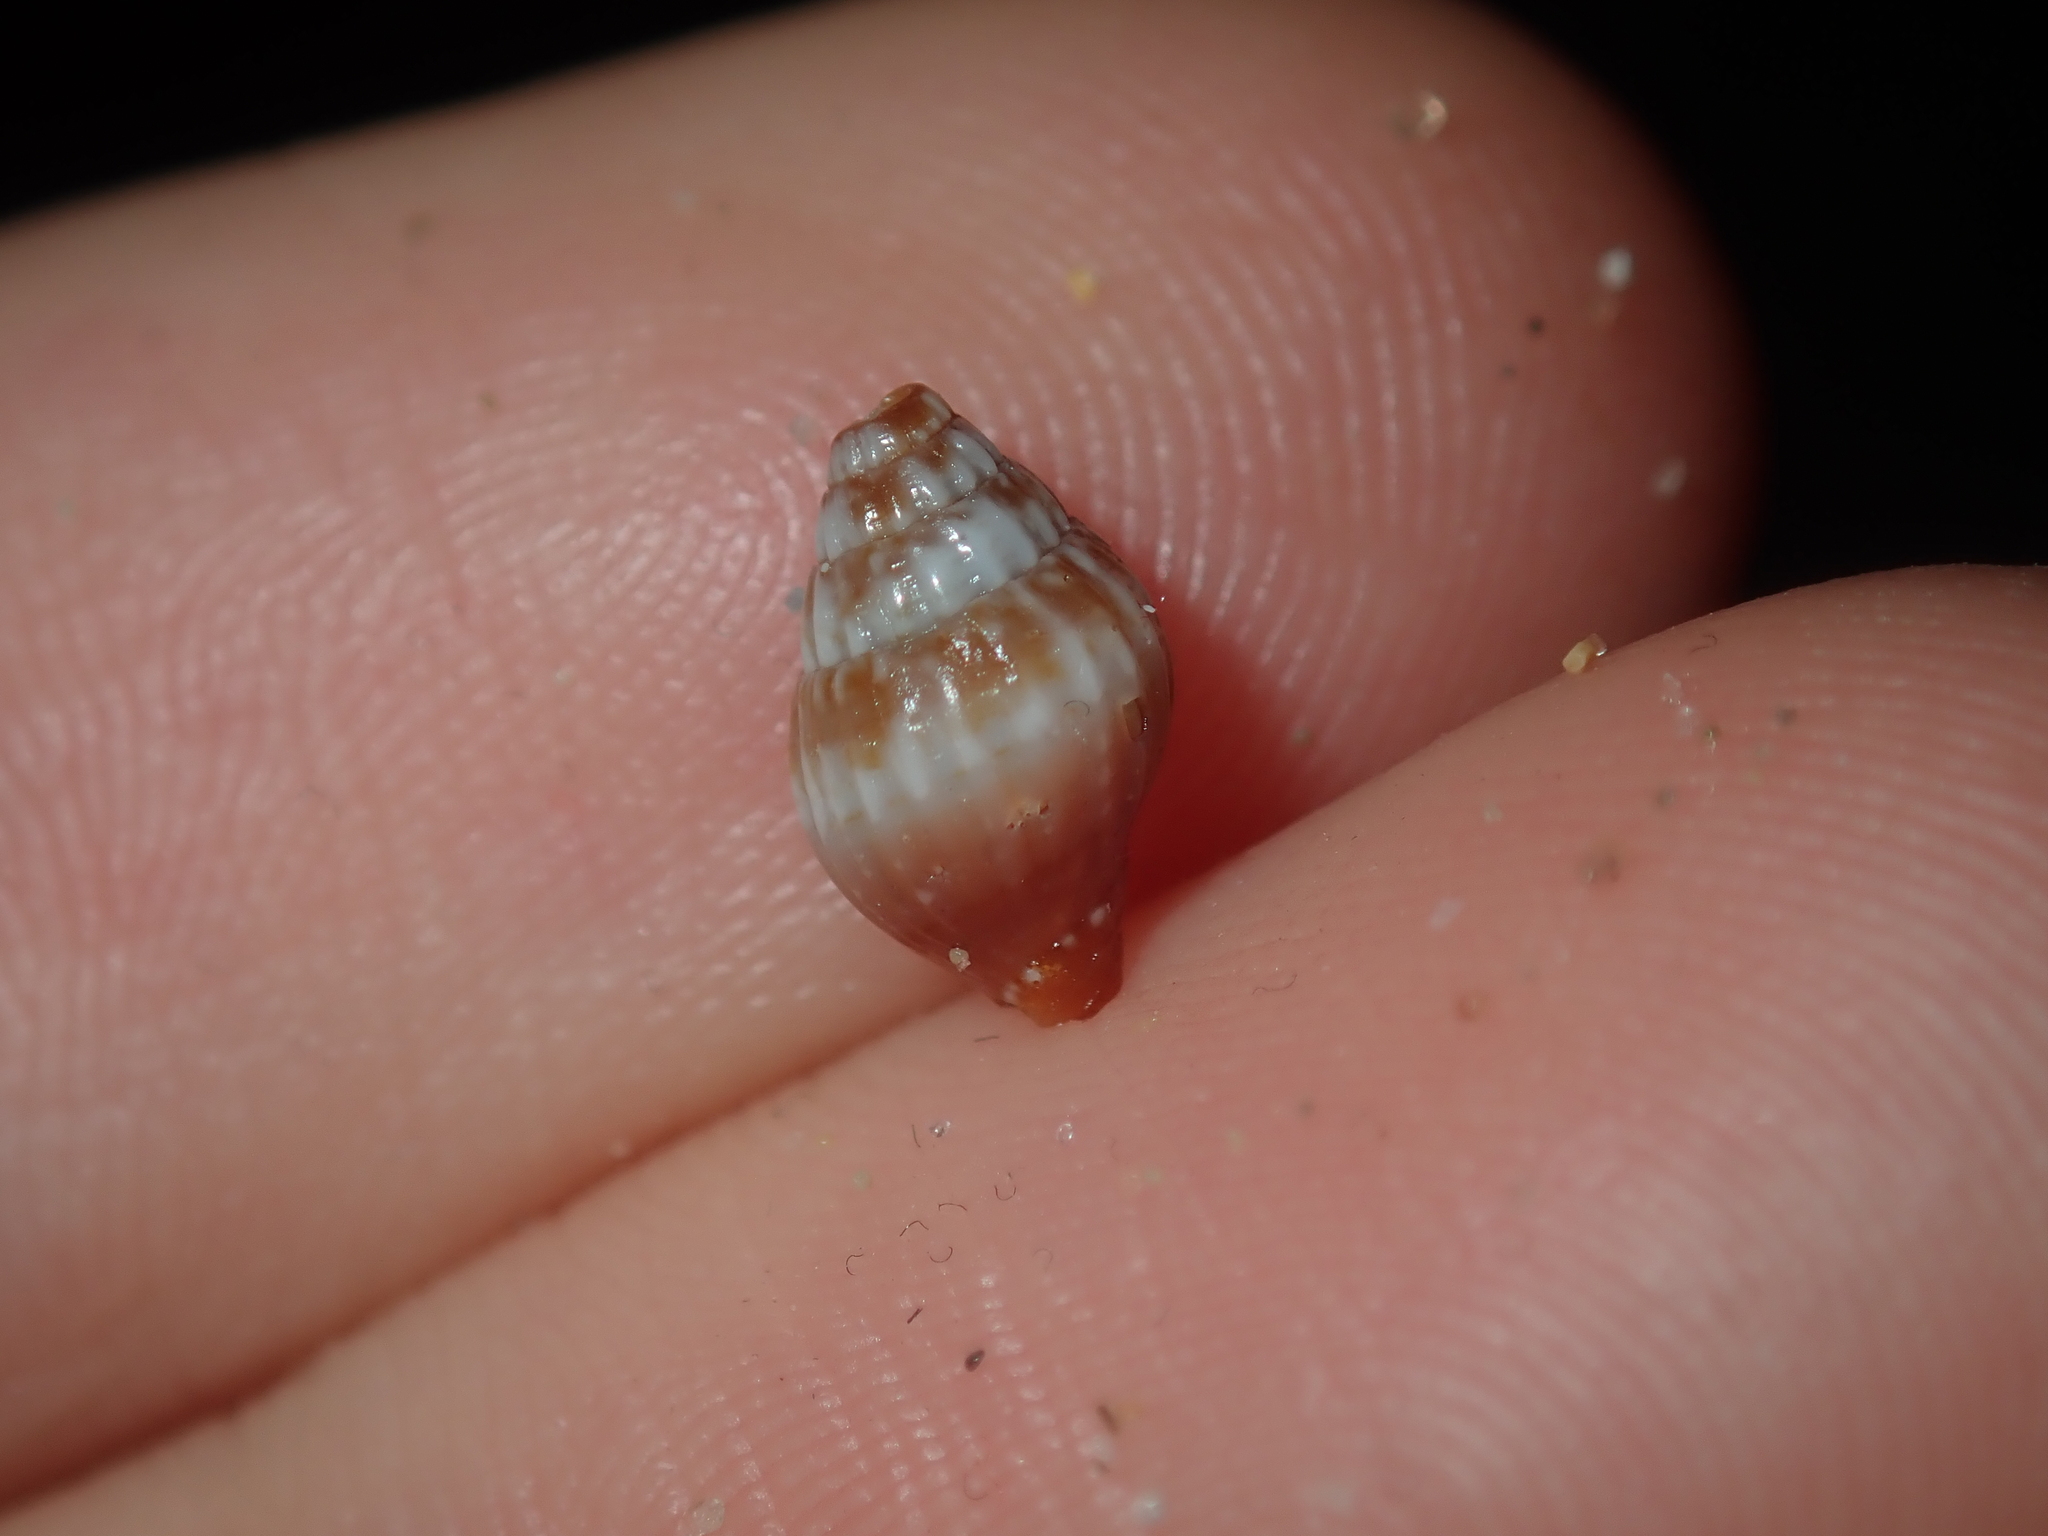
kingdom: Animalia
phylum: Mollusca
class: Gastropoda
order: Neogastropoda
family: Costellariidae
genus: Pusia
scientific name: Pusia simoneae
